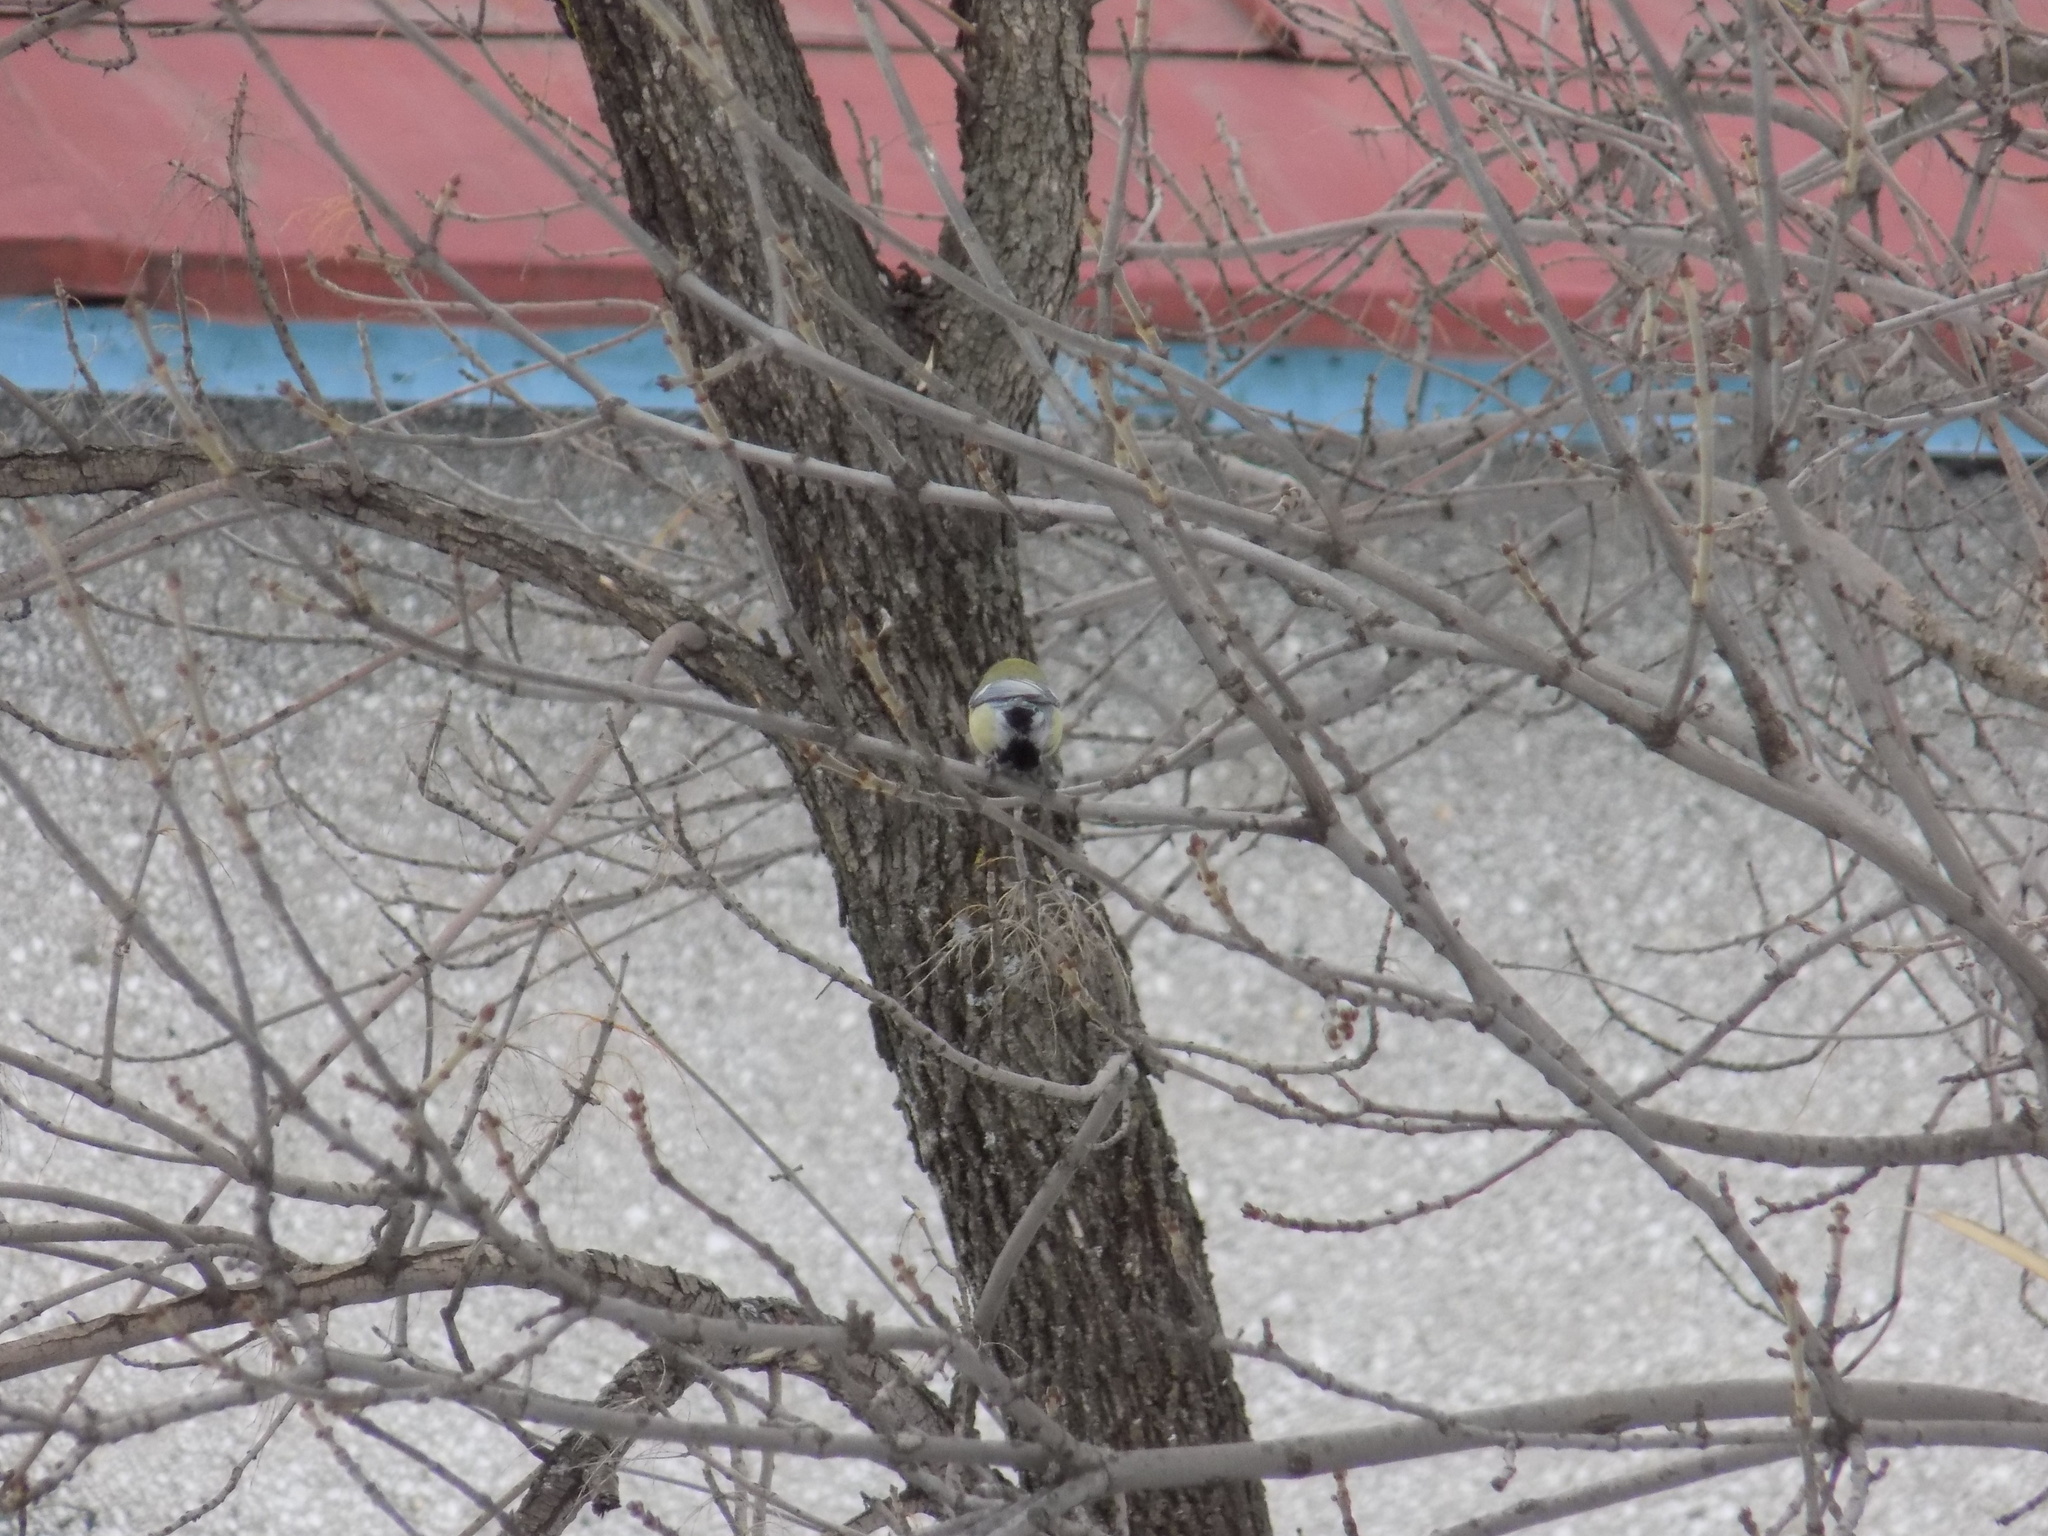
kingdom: Animalia
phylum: Chordata
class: Aves
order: Passeriformes
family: Paridae
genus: Parus
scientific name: Parus major
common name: Great tit
